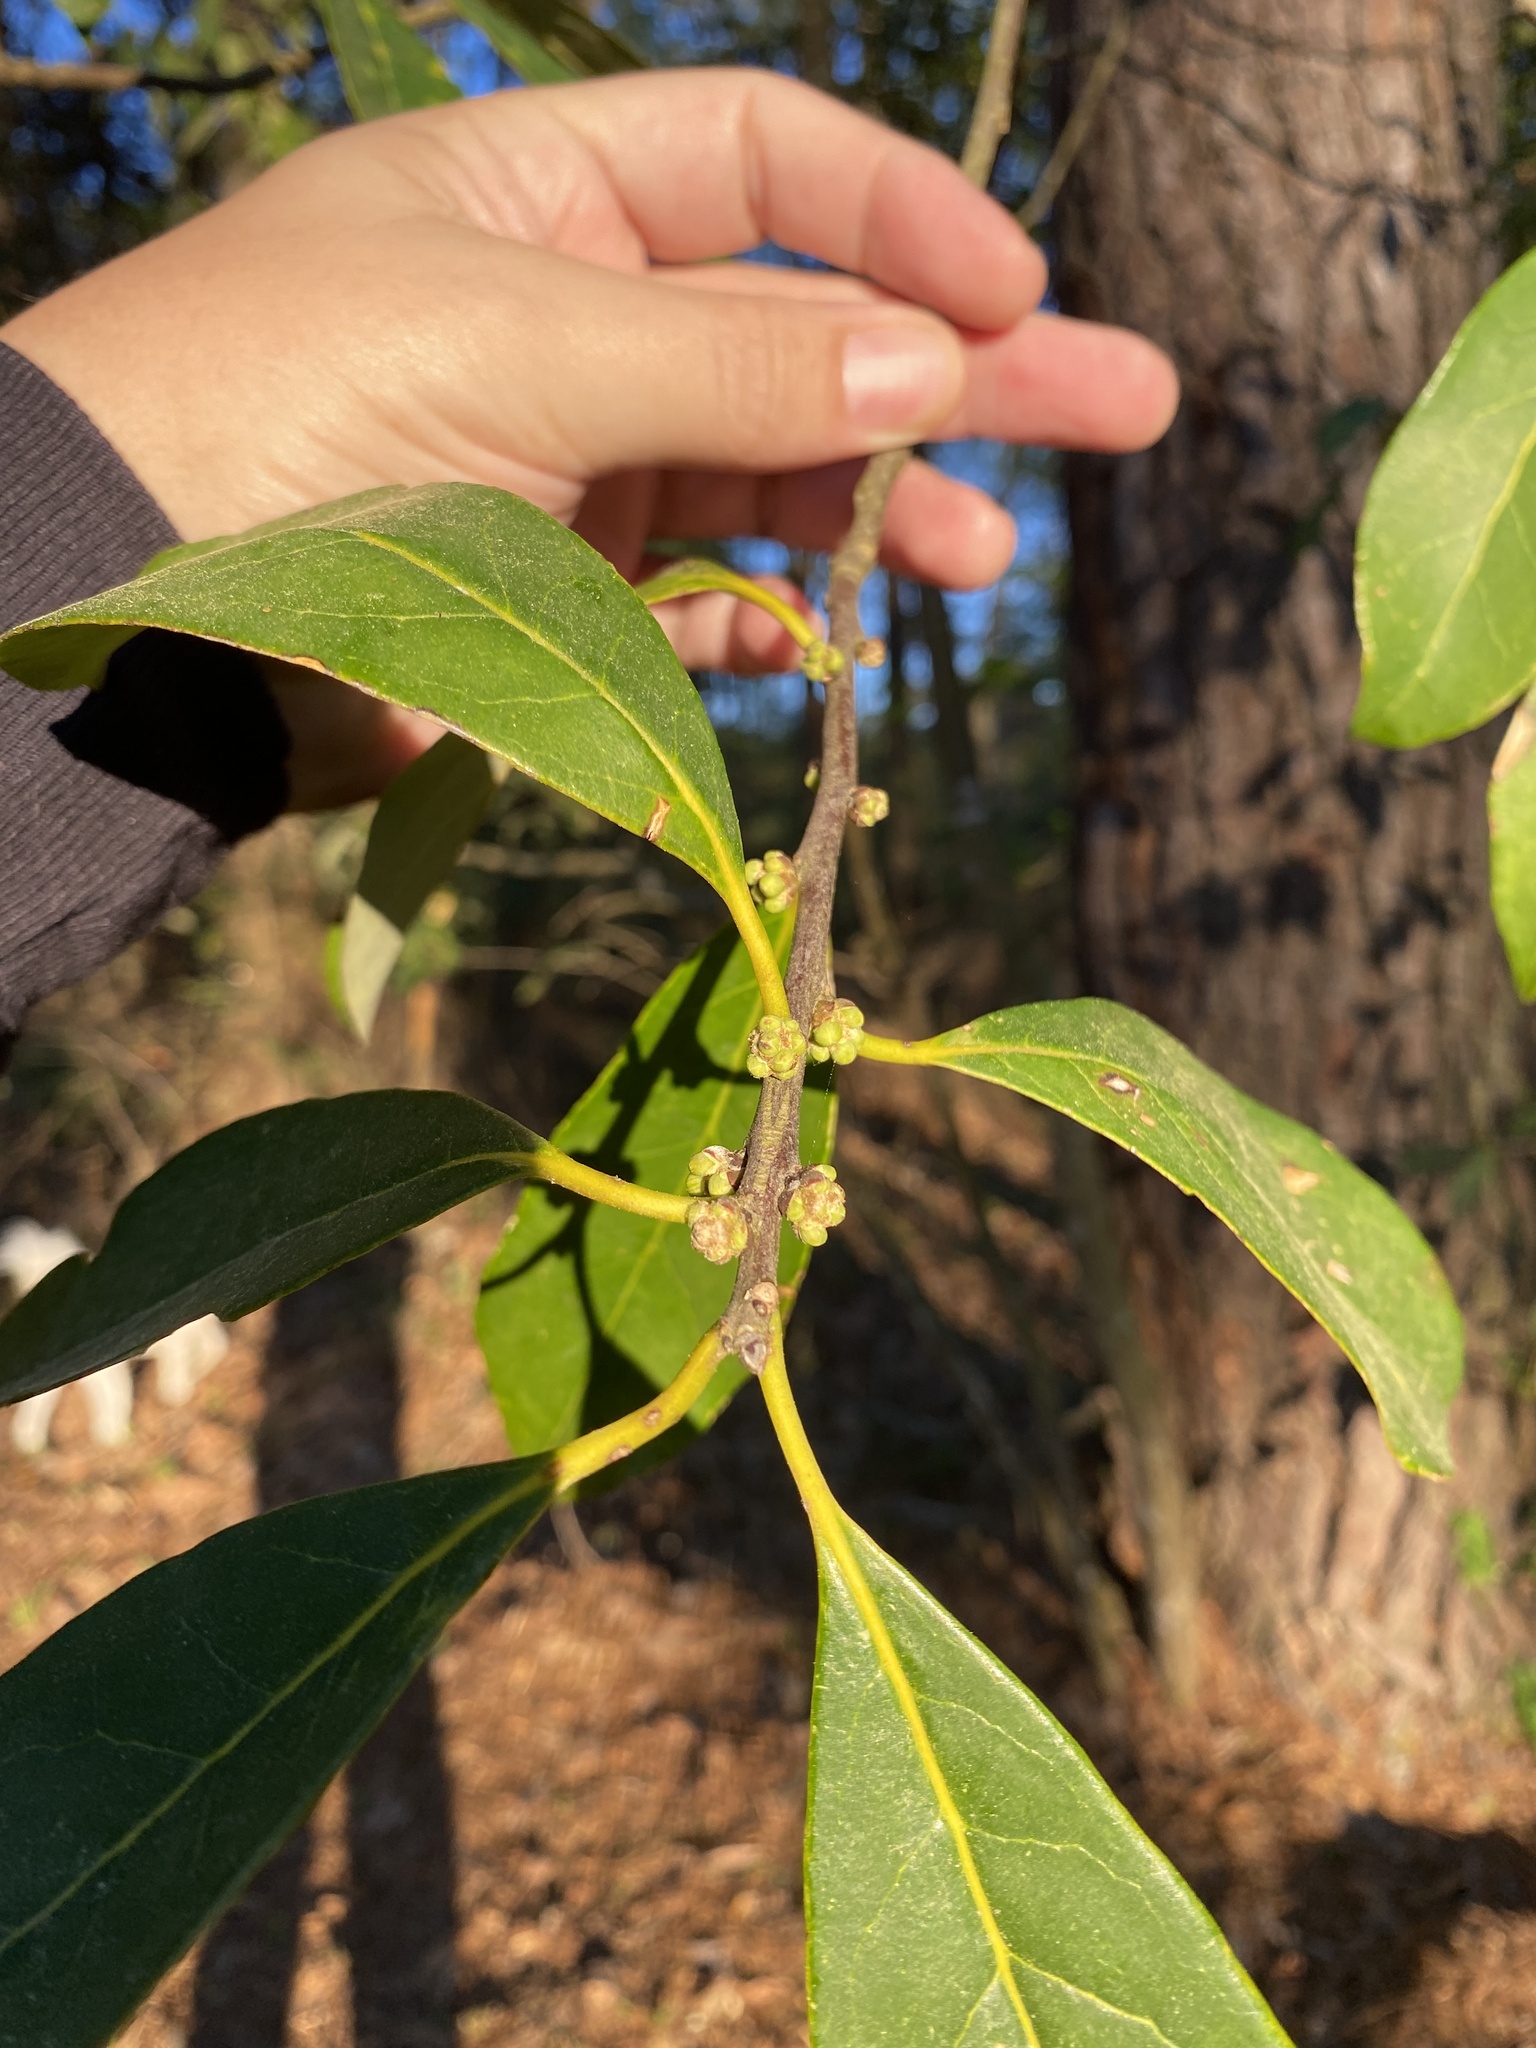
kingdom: Plantae
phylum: Tracheophyta
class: Magnoliopsida
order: Ericales
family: Symplocaceae
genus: Symplocos
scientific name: Symplocos tinctoria
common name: Horse-sugar
